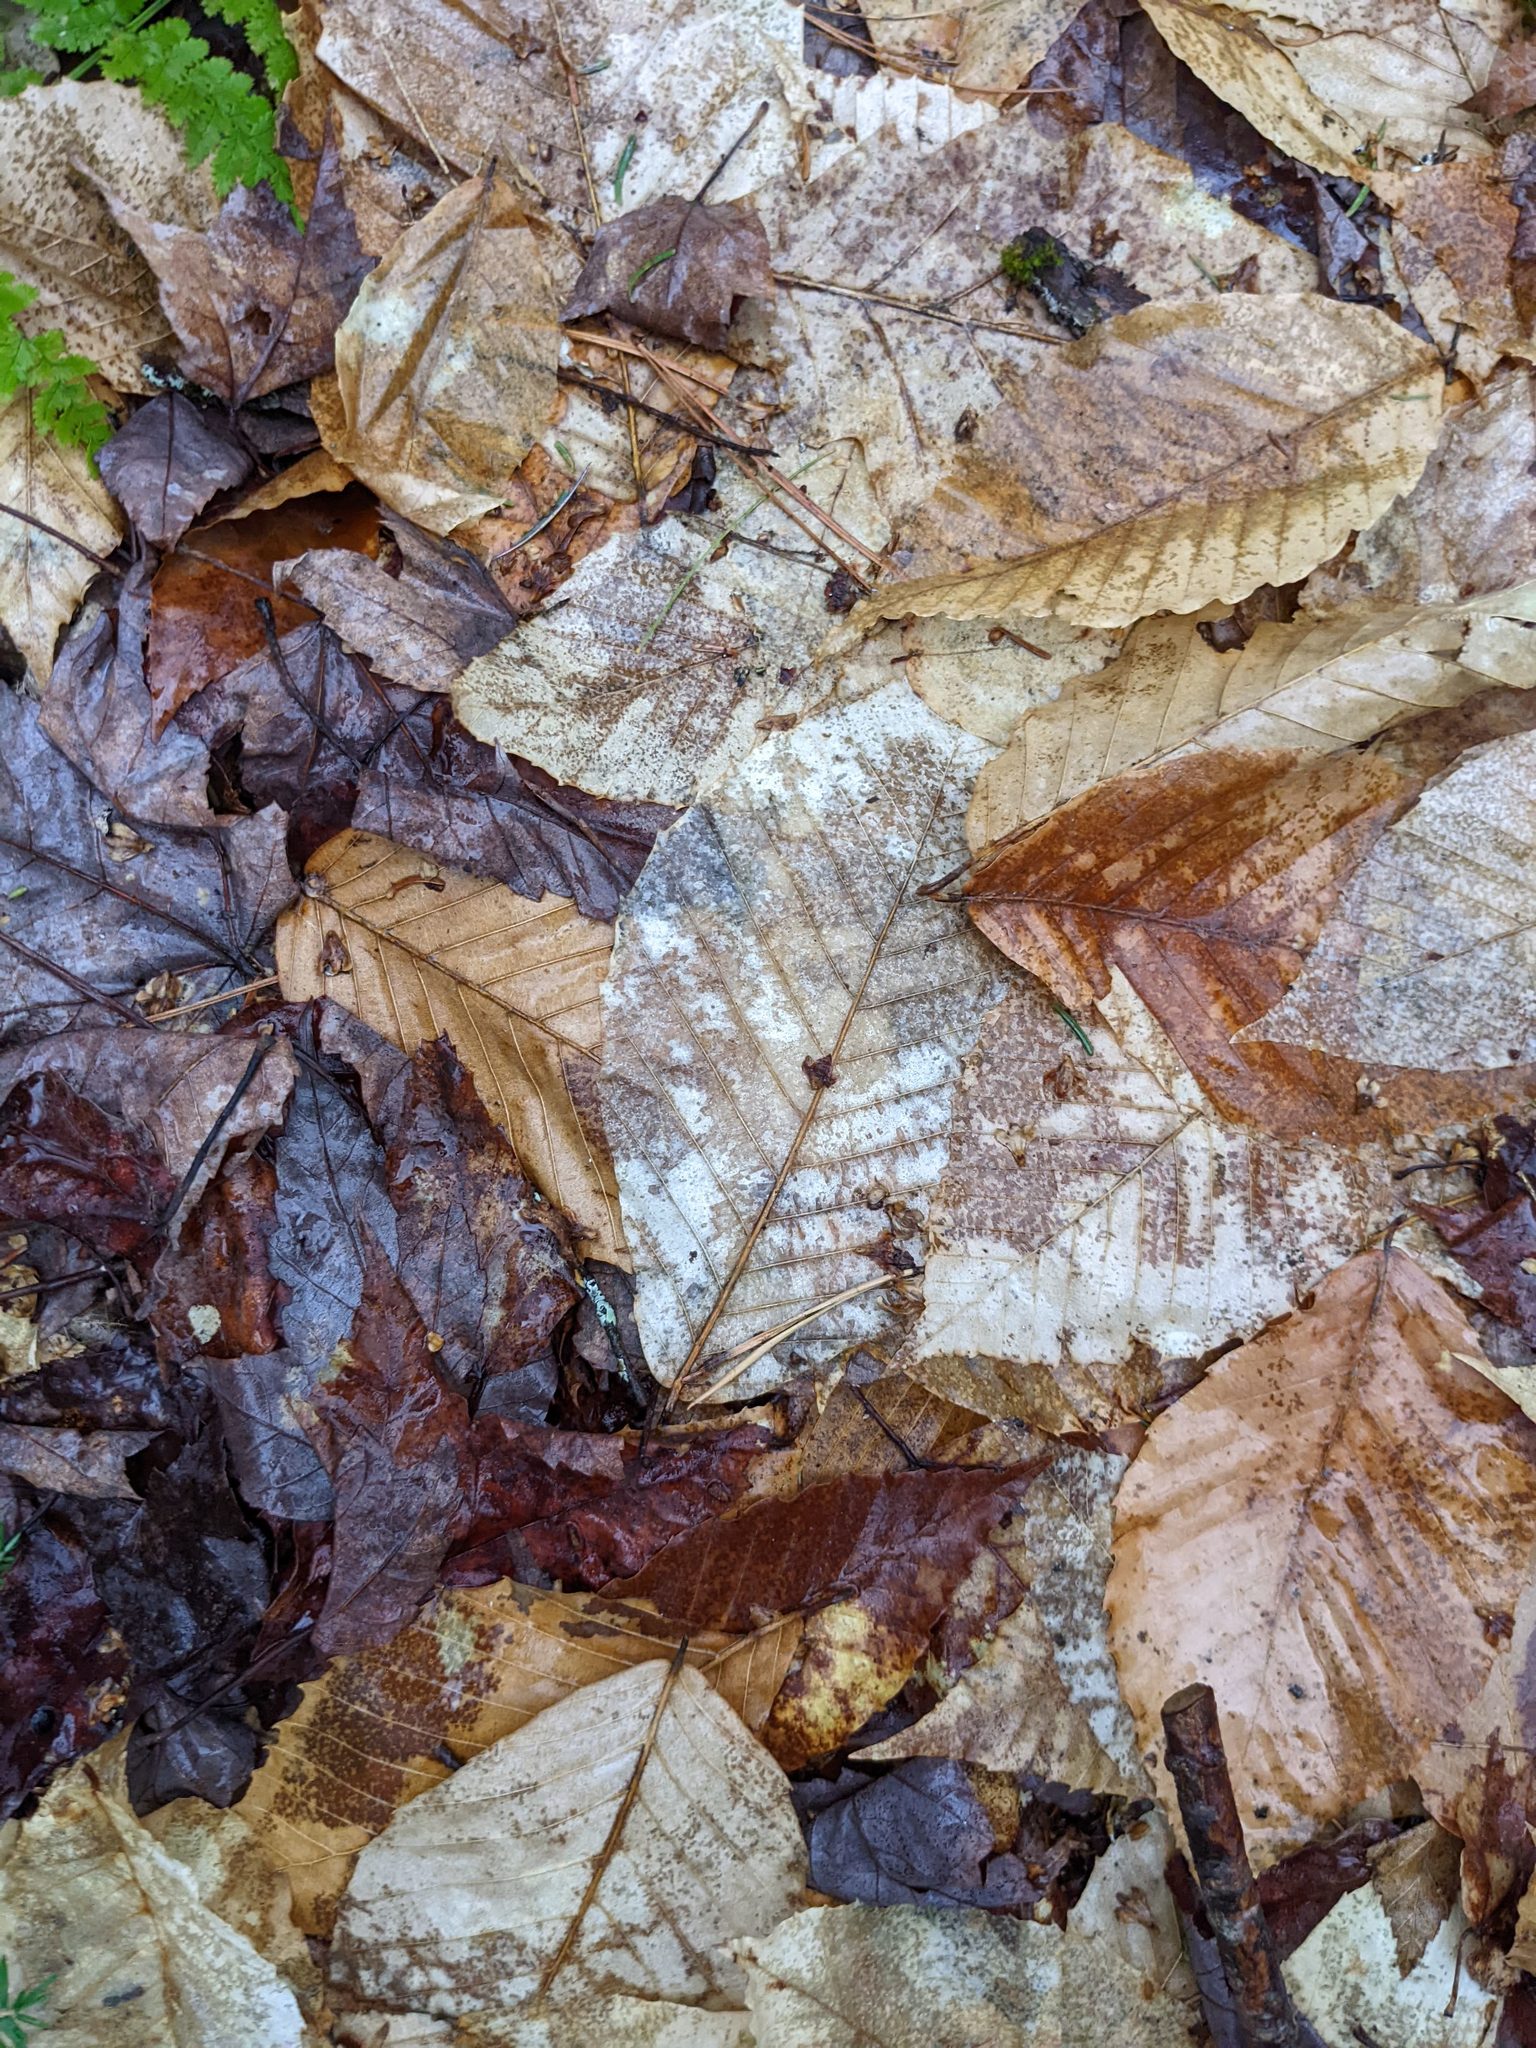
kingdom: Plantae
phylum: Tracheophyta
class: Magnoliopsida
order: Fagales
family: Fagaceae
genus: Fagus
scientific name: Fagus grandifolia
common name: American beech
